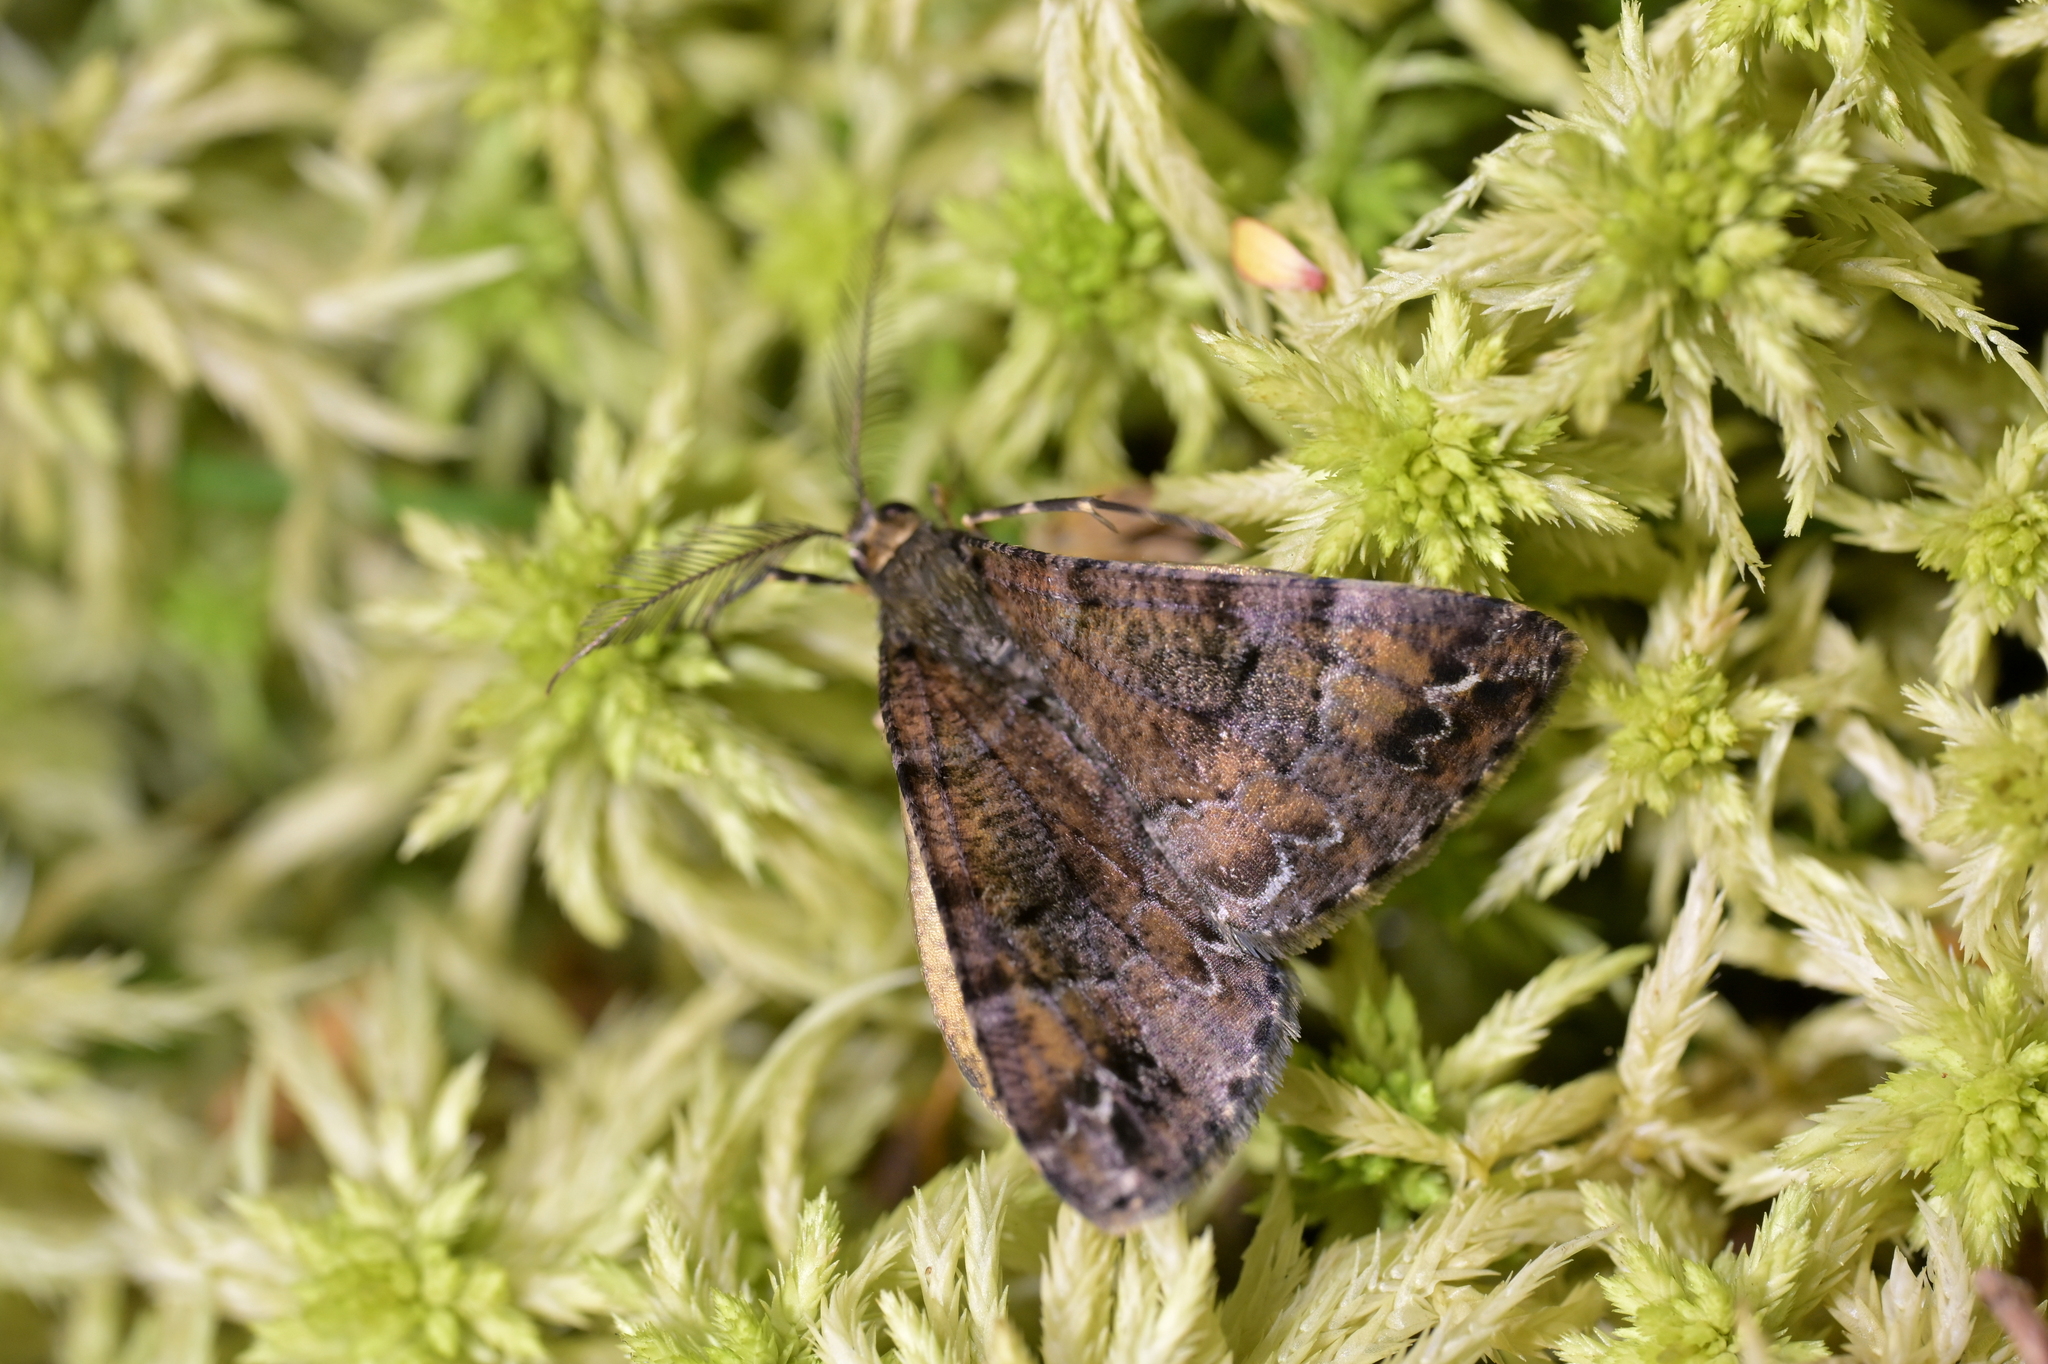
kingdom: Animalia
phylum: Arthropoda
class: Insecta
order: Lepidoptera
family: Geometridae
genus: Pseudocoremia
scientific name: Pseudocoremia productata
